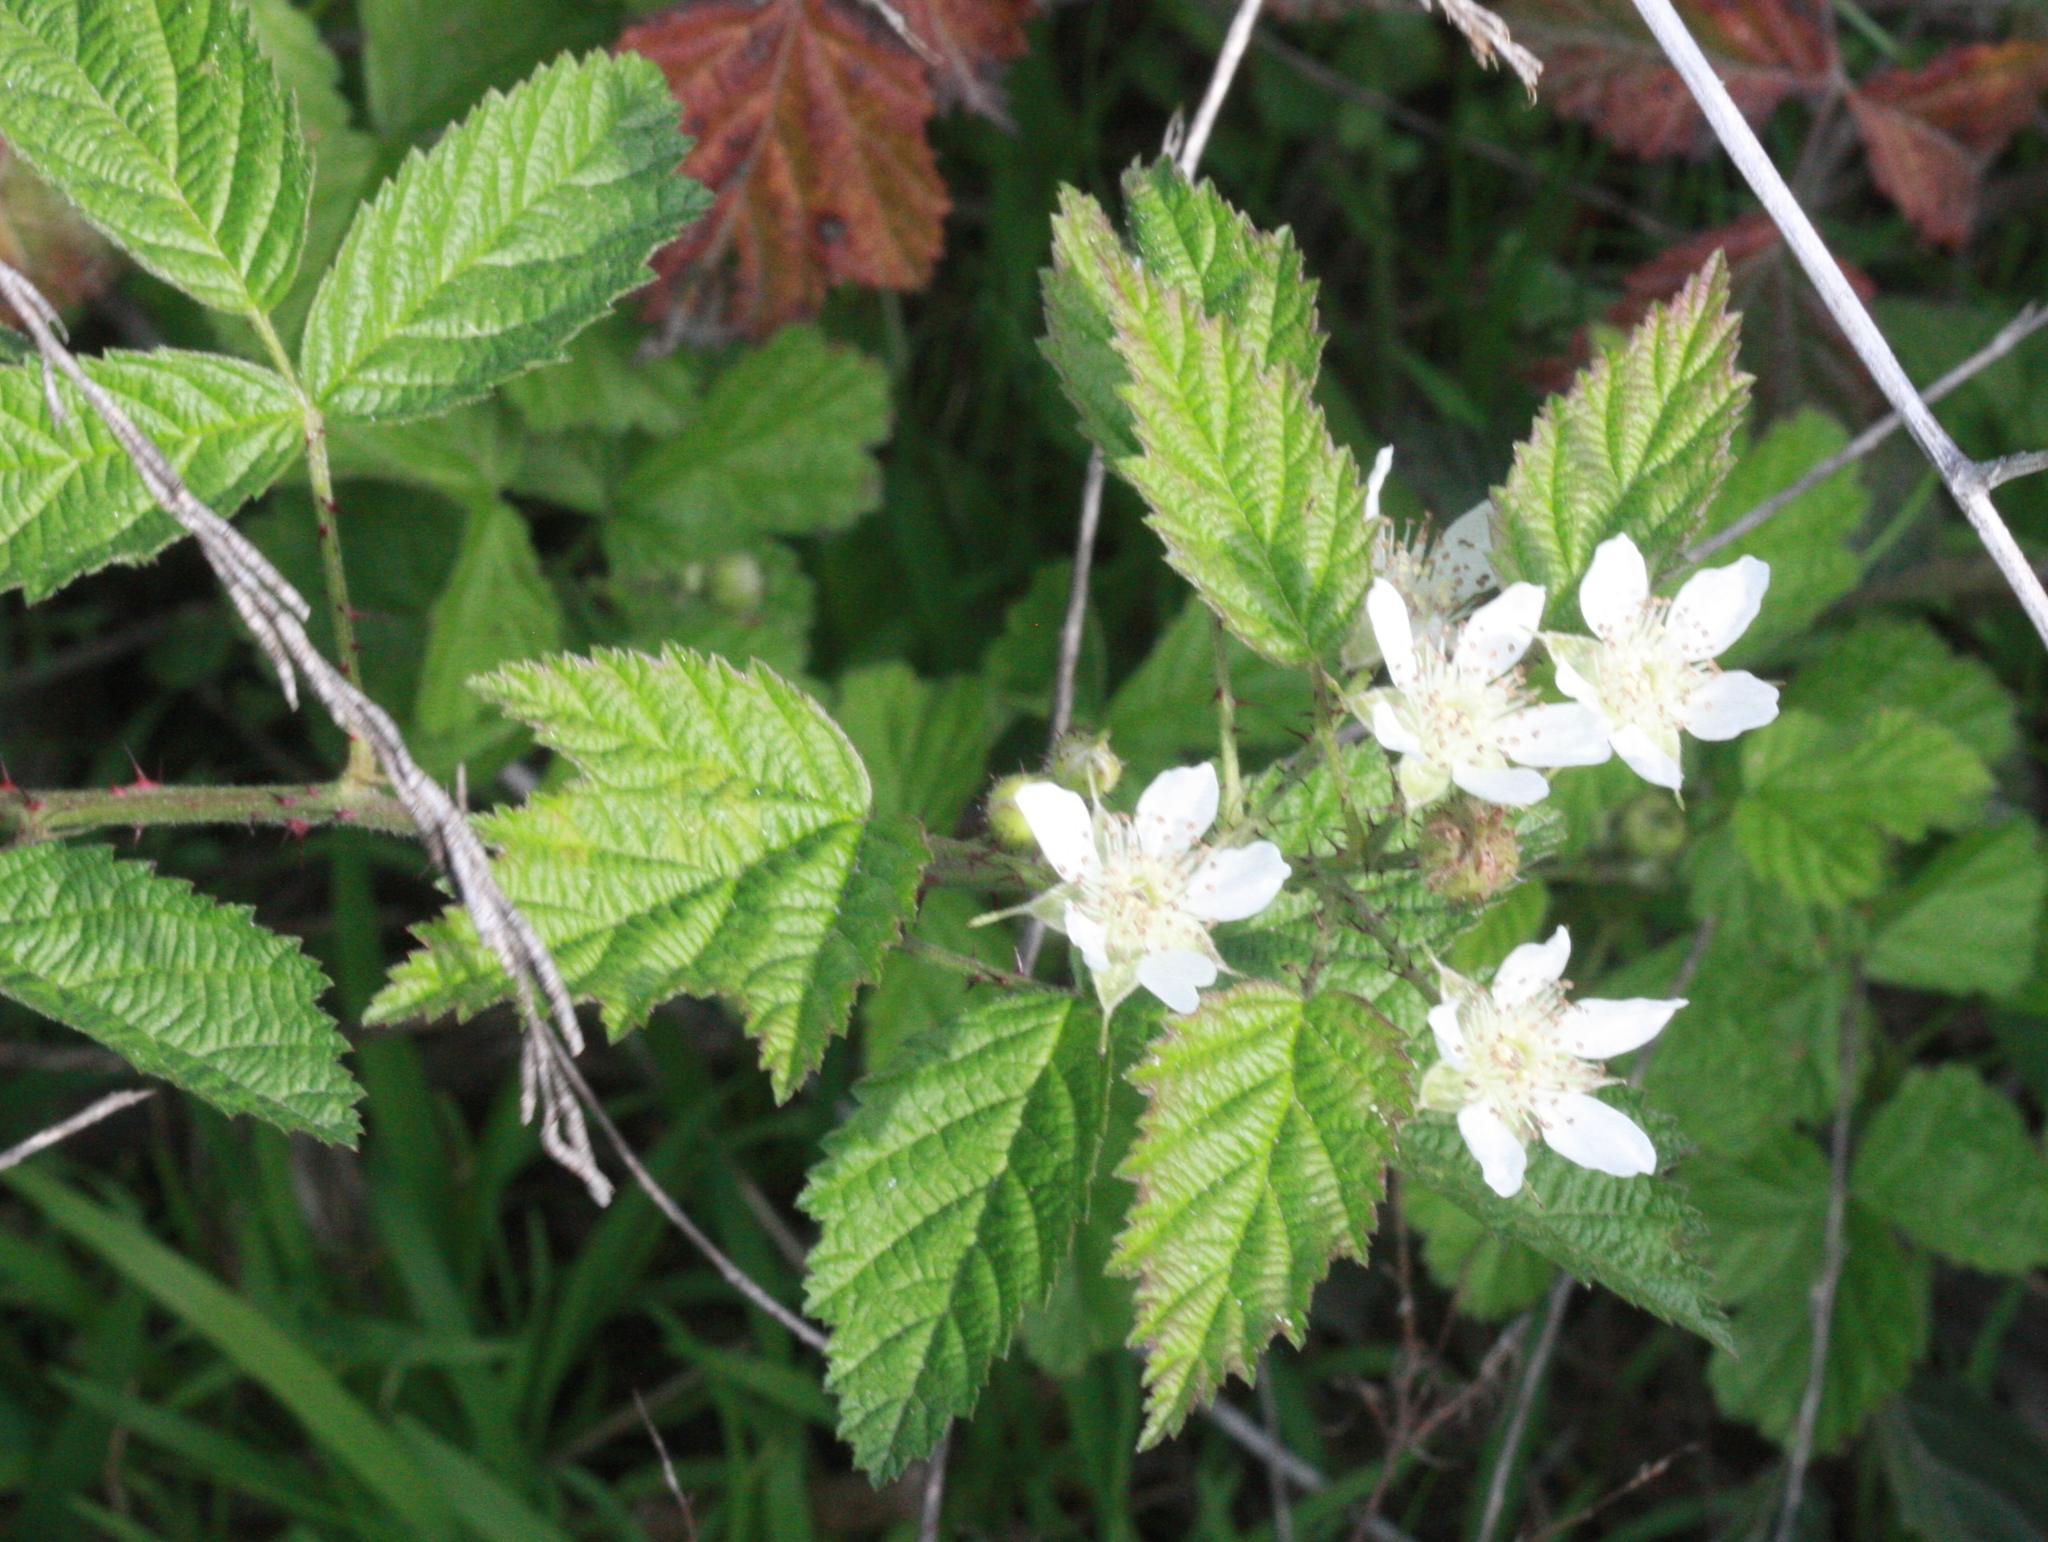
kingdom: Plantae
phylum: Tracheophyta
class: Magnoliopsida
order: Rosales
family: Rosaceae
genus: Rubus
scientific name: Rubus ursinus
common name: Pacific blackberry
